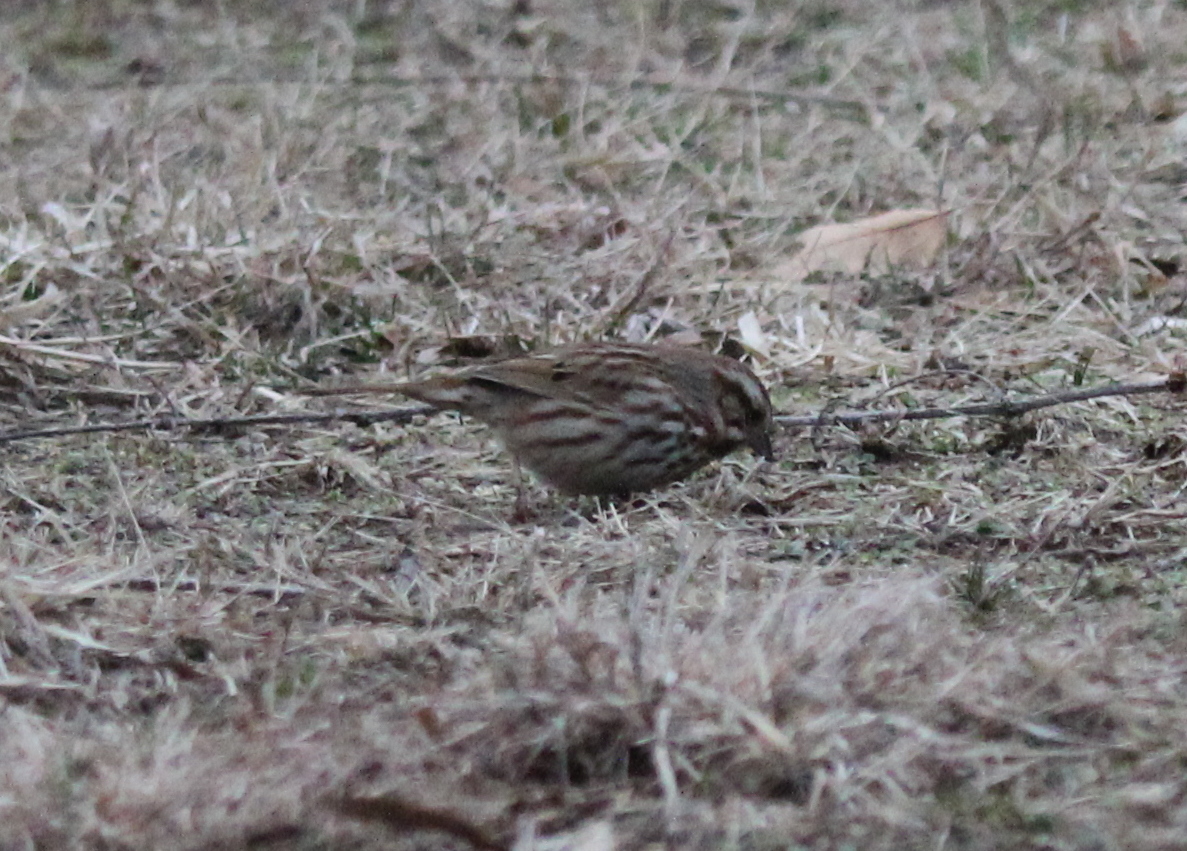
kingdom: Animalia
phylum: Chordata
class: Aves
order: Passeriformes
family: Passerellidae
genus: Melospiza
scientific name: Melospiza melodia
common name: Song sparrow
